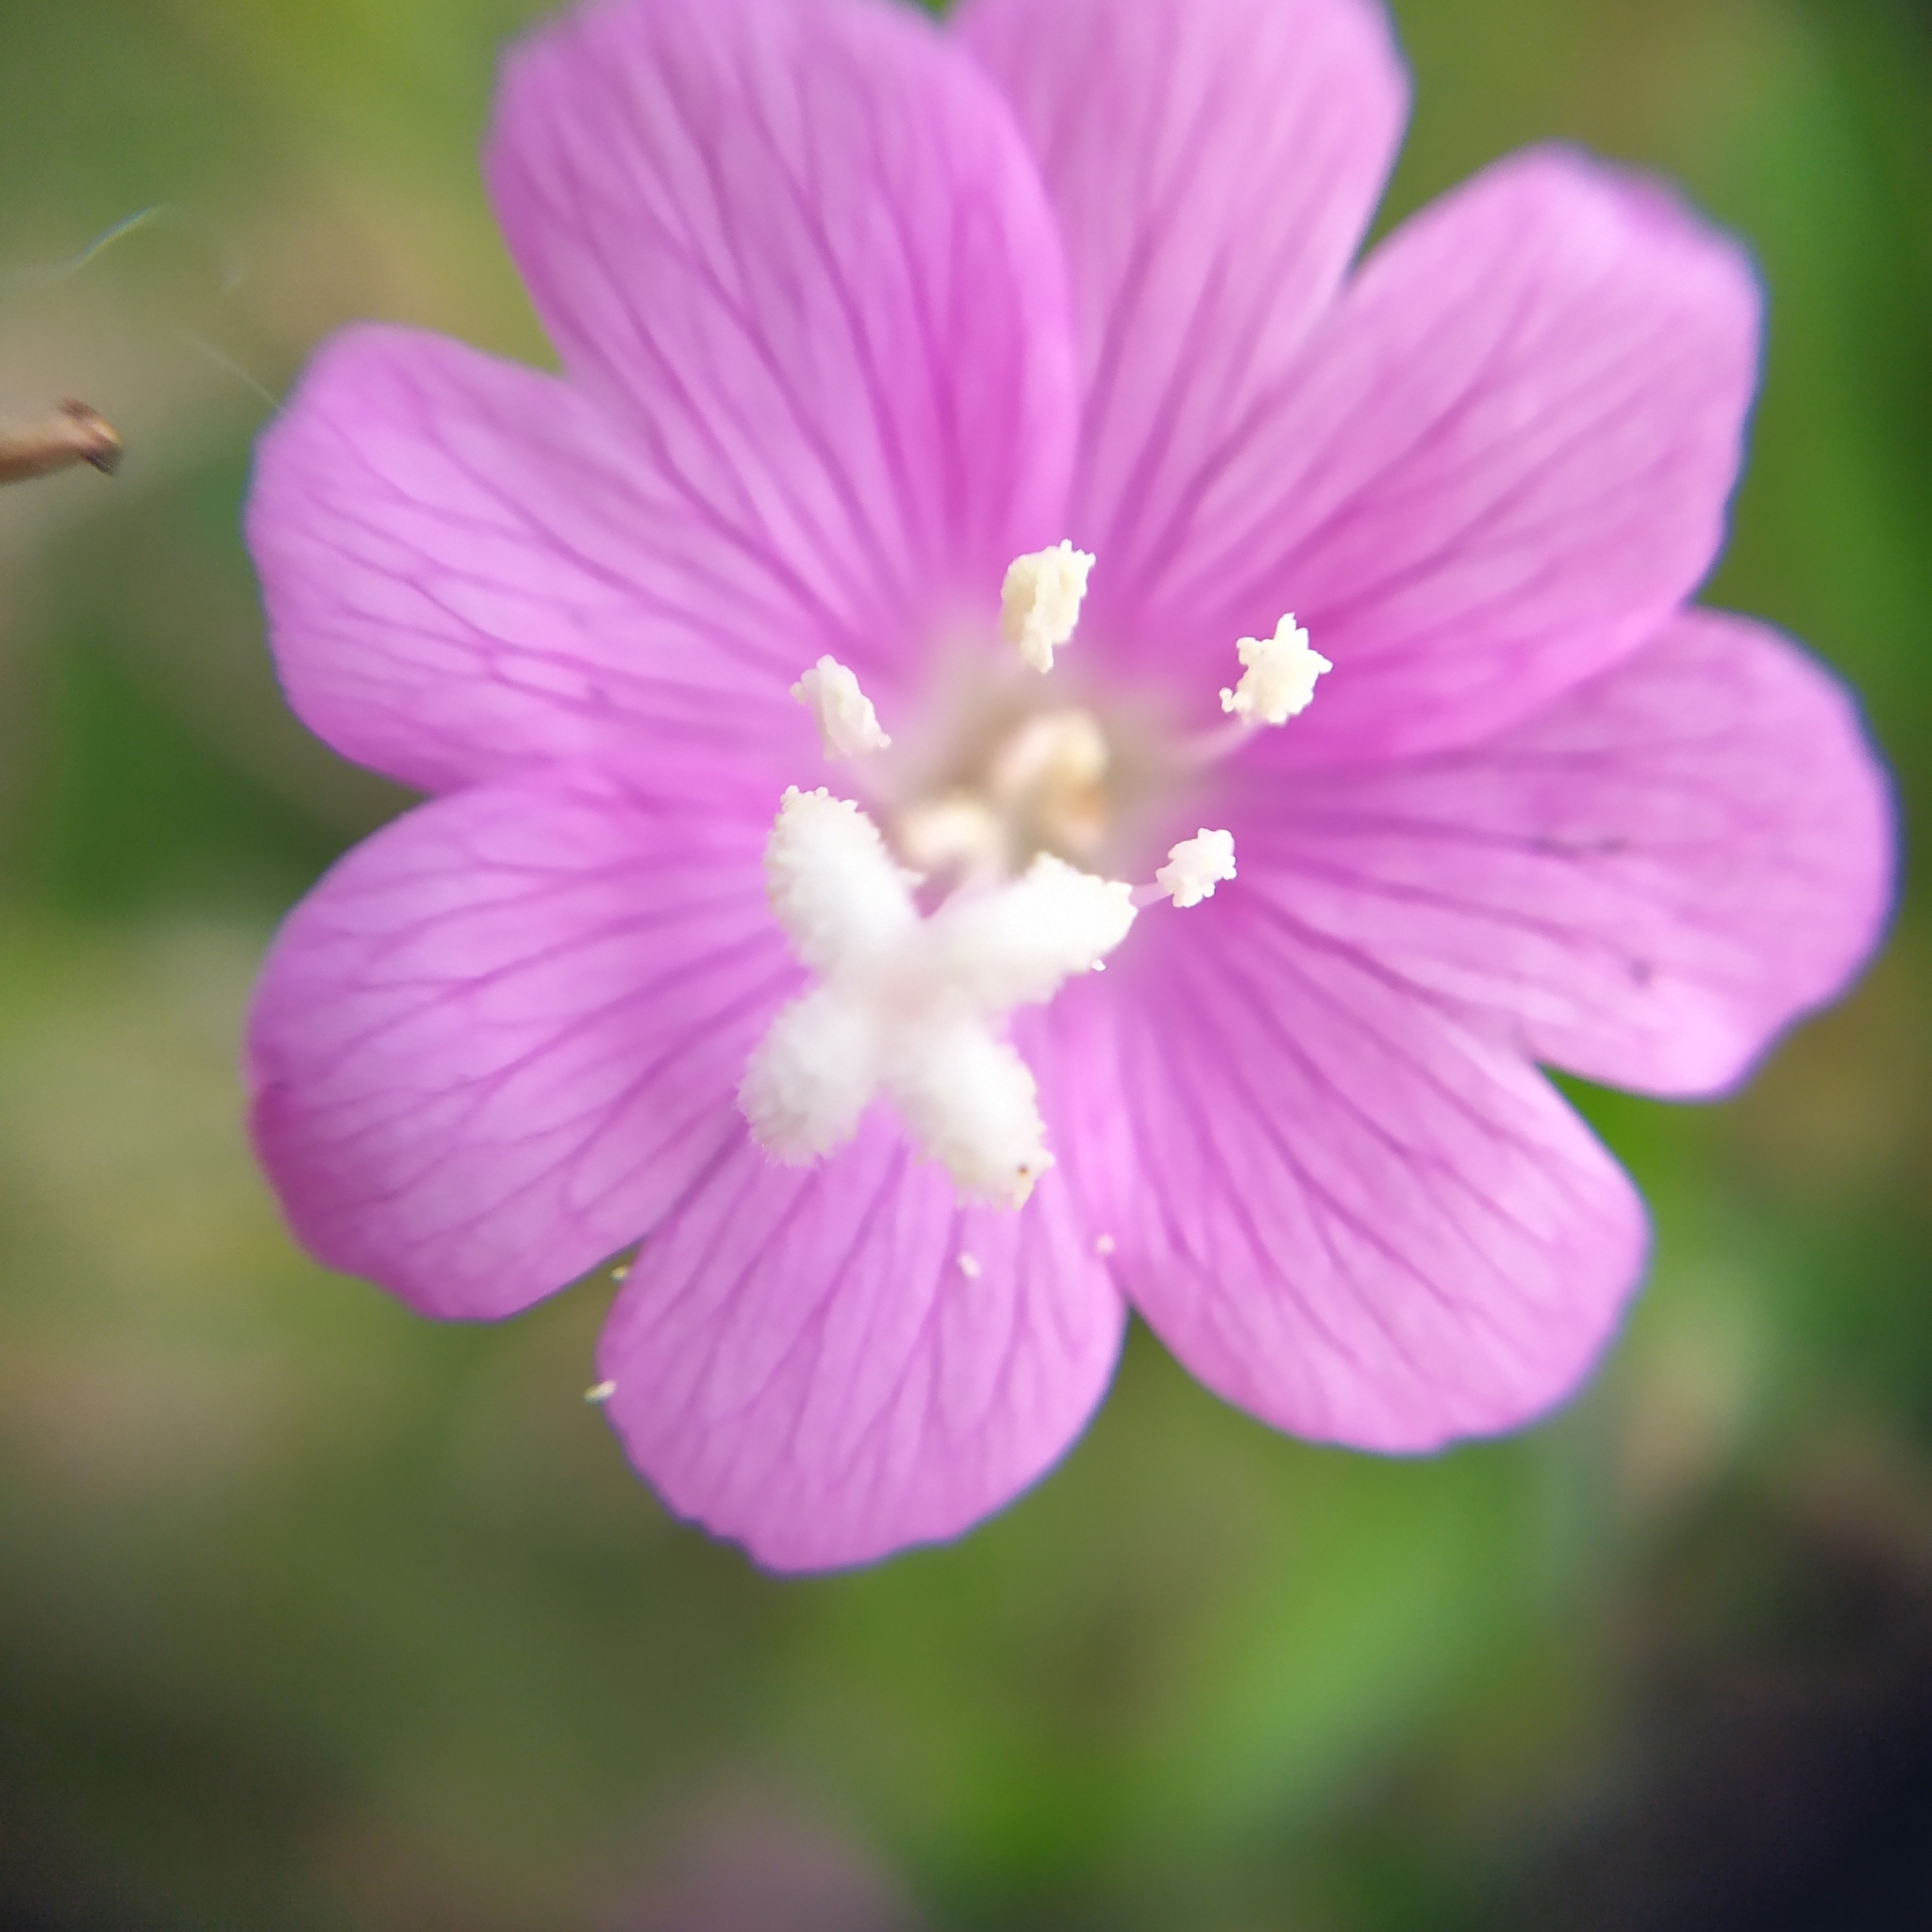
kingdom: Plantae
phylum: Tracheophyta
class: Magnoliopsida
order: Myrtales
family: Onagraceae
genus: Epilobium
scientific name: Epilobium hirsutum
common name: Great willowherb
